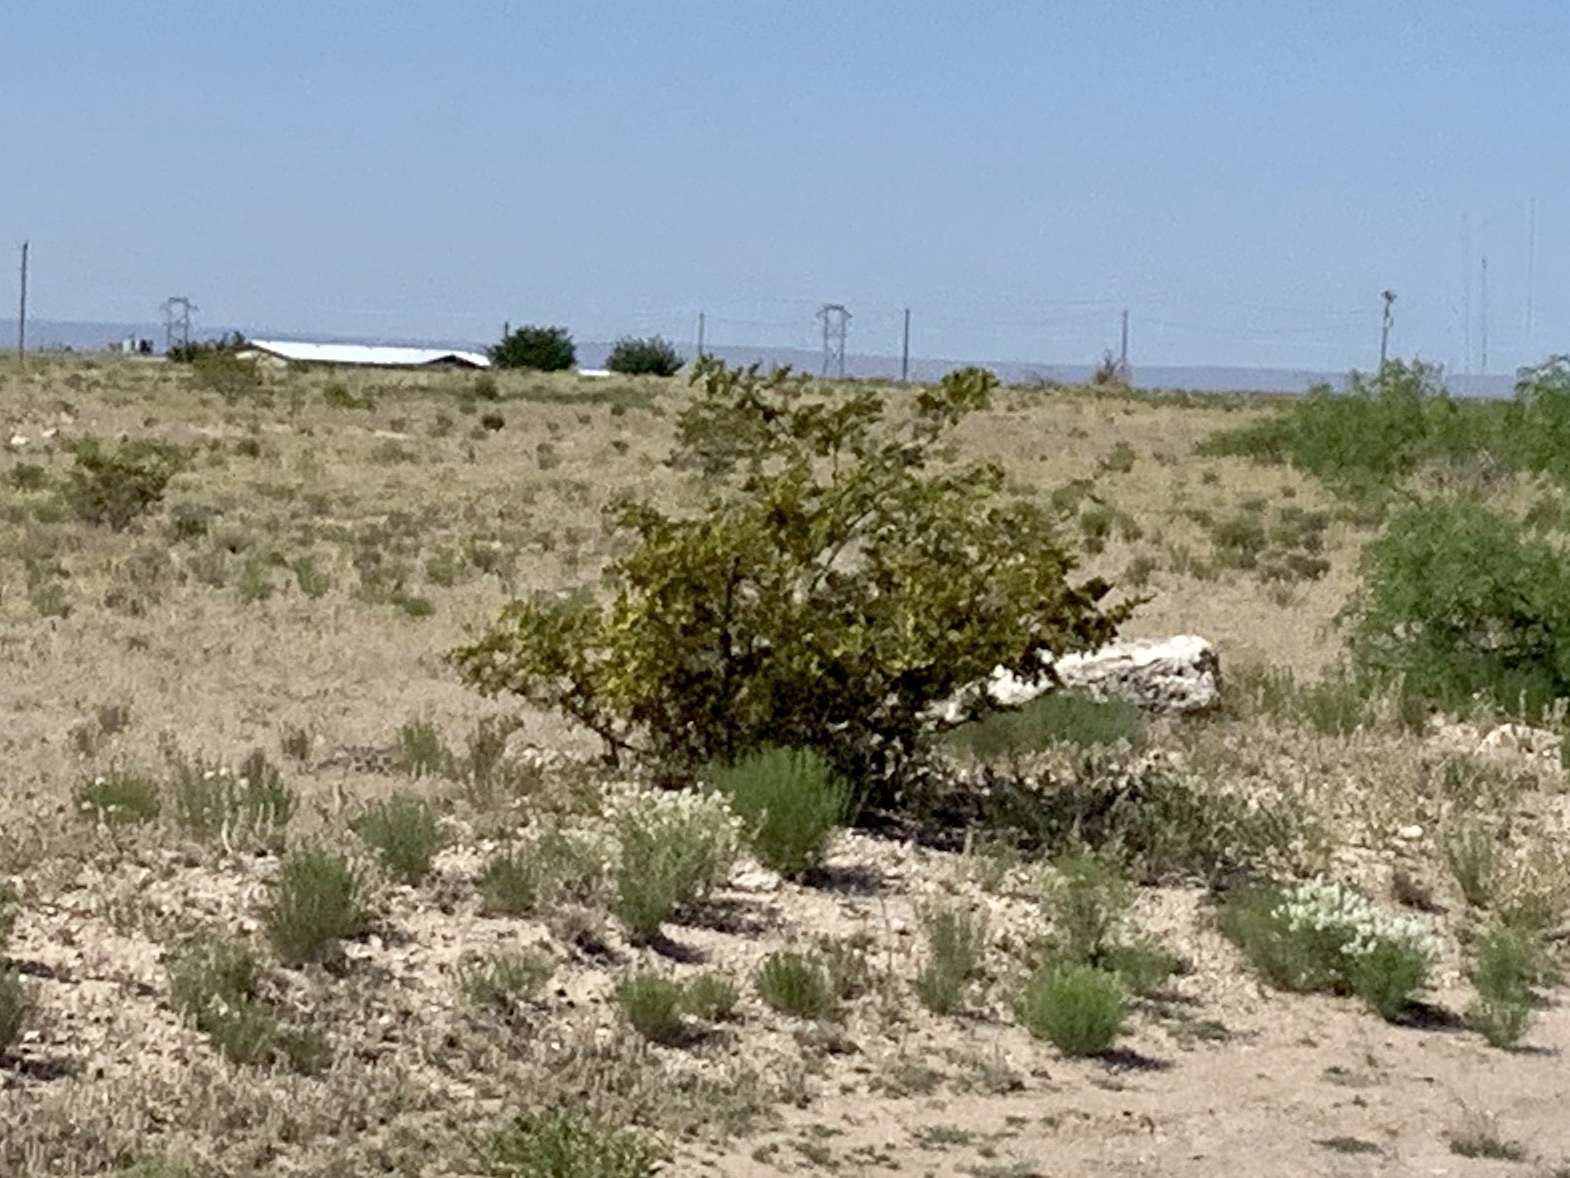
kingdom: Plantae
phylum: Tracheophyta
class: Magnoliopsida
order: Zygophyllales
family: Zygophyllaceae
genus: Larrea
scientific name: Larrea tridentata
